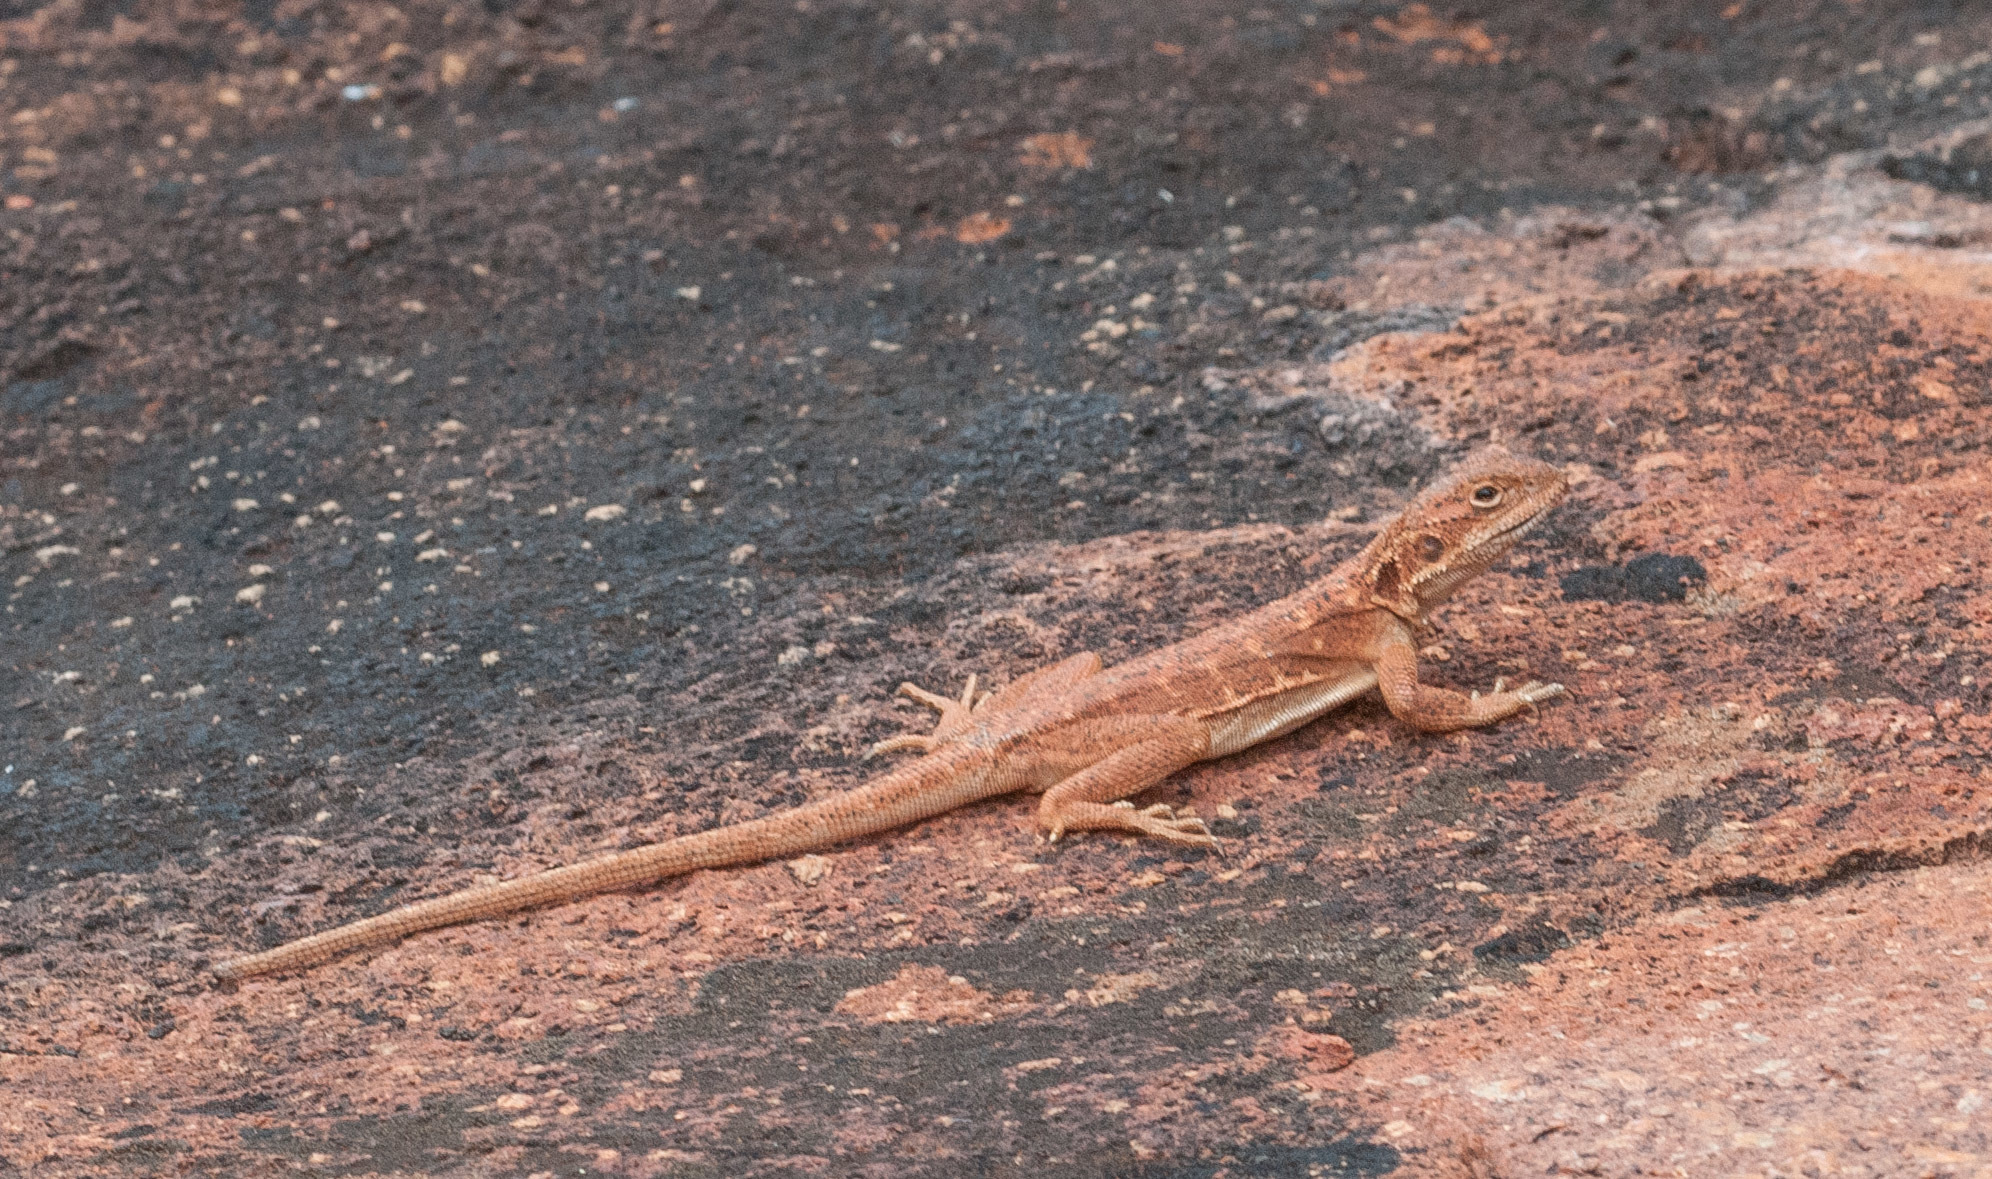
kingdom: Animalia
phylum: Chordata
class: Squamata
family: Agamidae
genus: Ctenophorus
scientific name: Ctenophorus fionni
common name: Peninsula crevis-dragon
